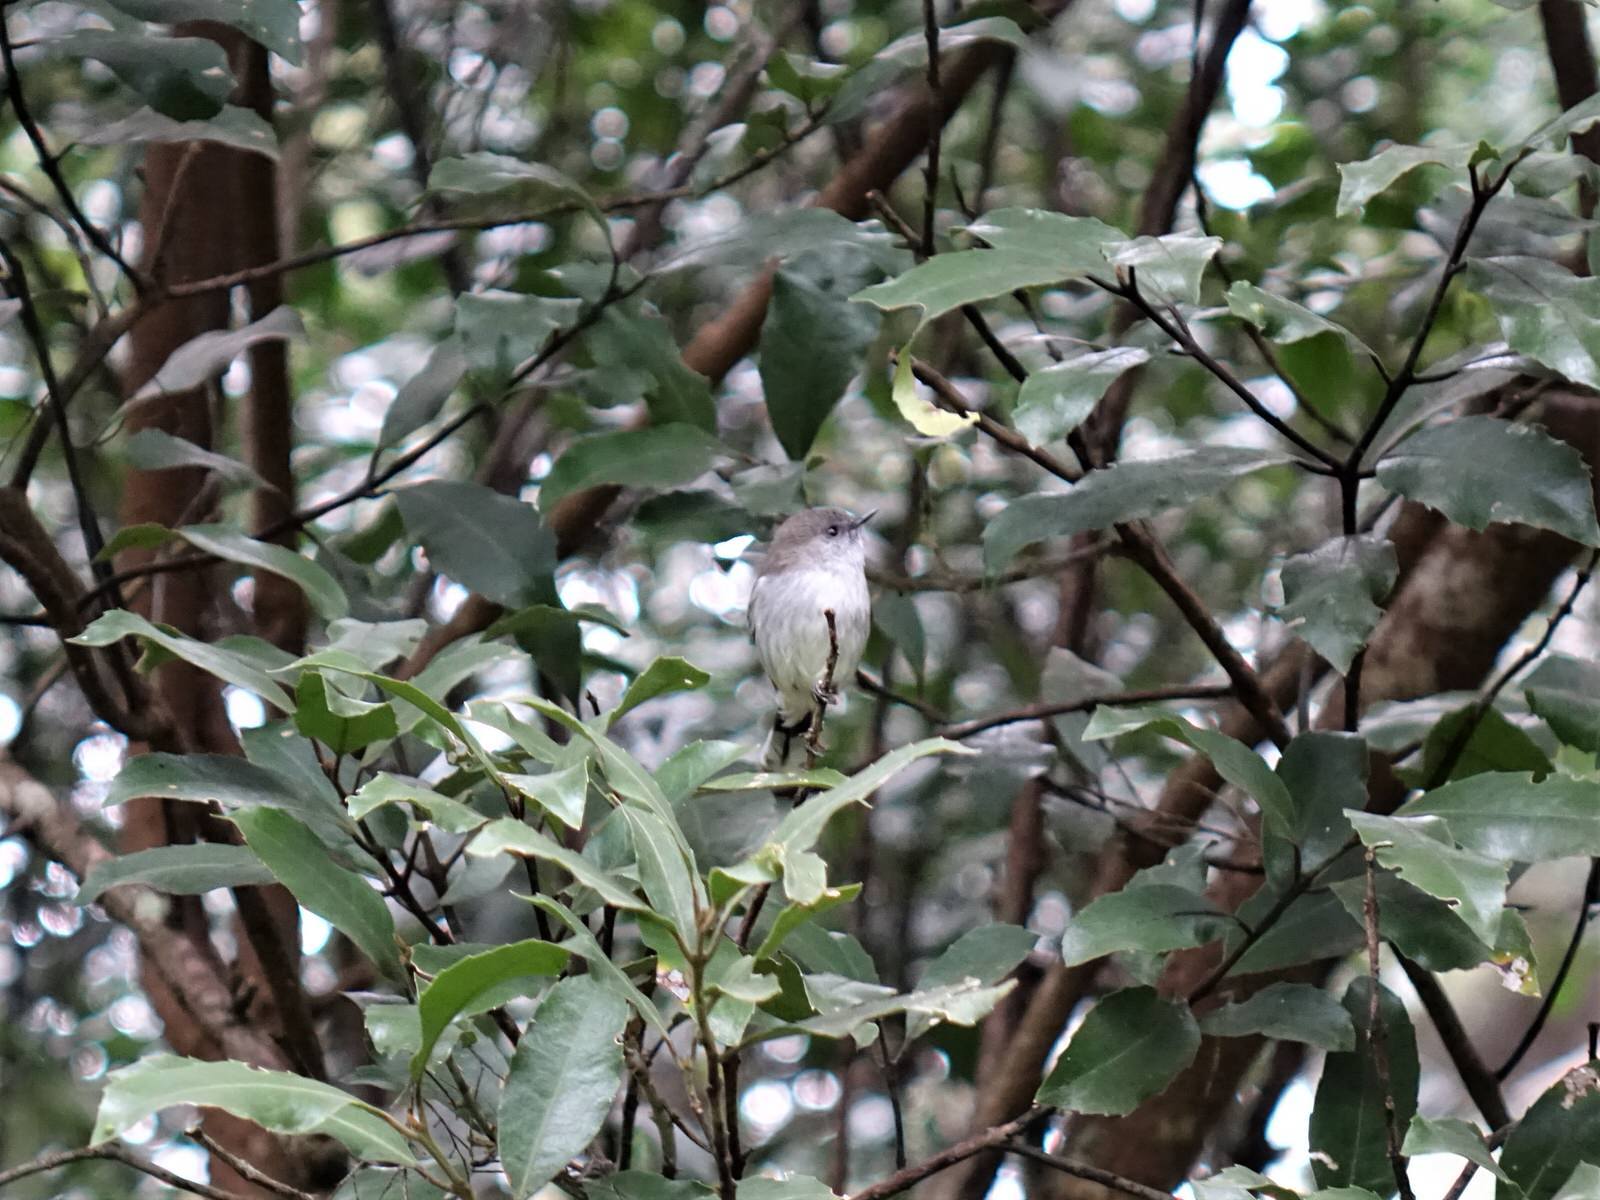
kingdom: Animalia
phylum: Chordata
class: Aves
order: Passeriformes
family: Acanthizidae
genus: Gerygone
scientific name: Gerygone igata
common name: Grey gerygone
